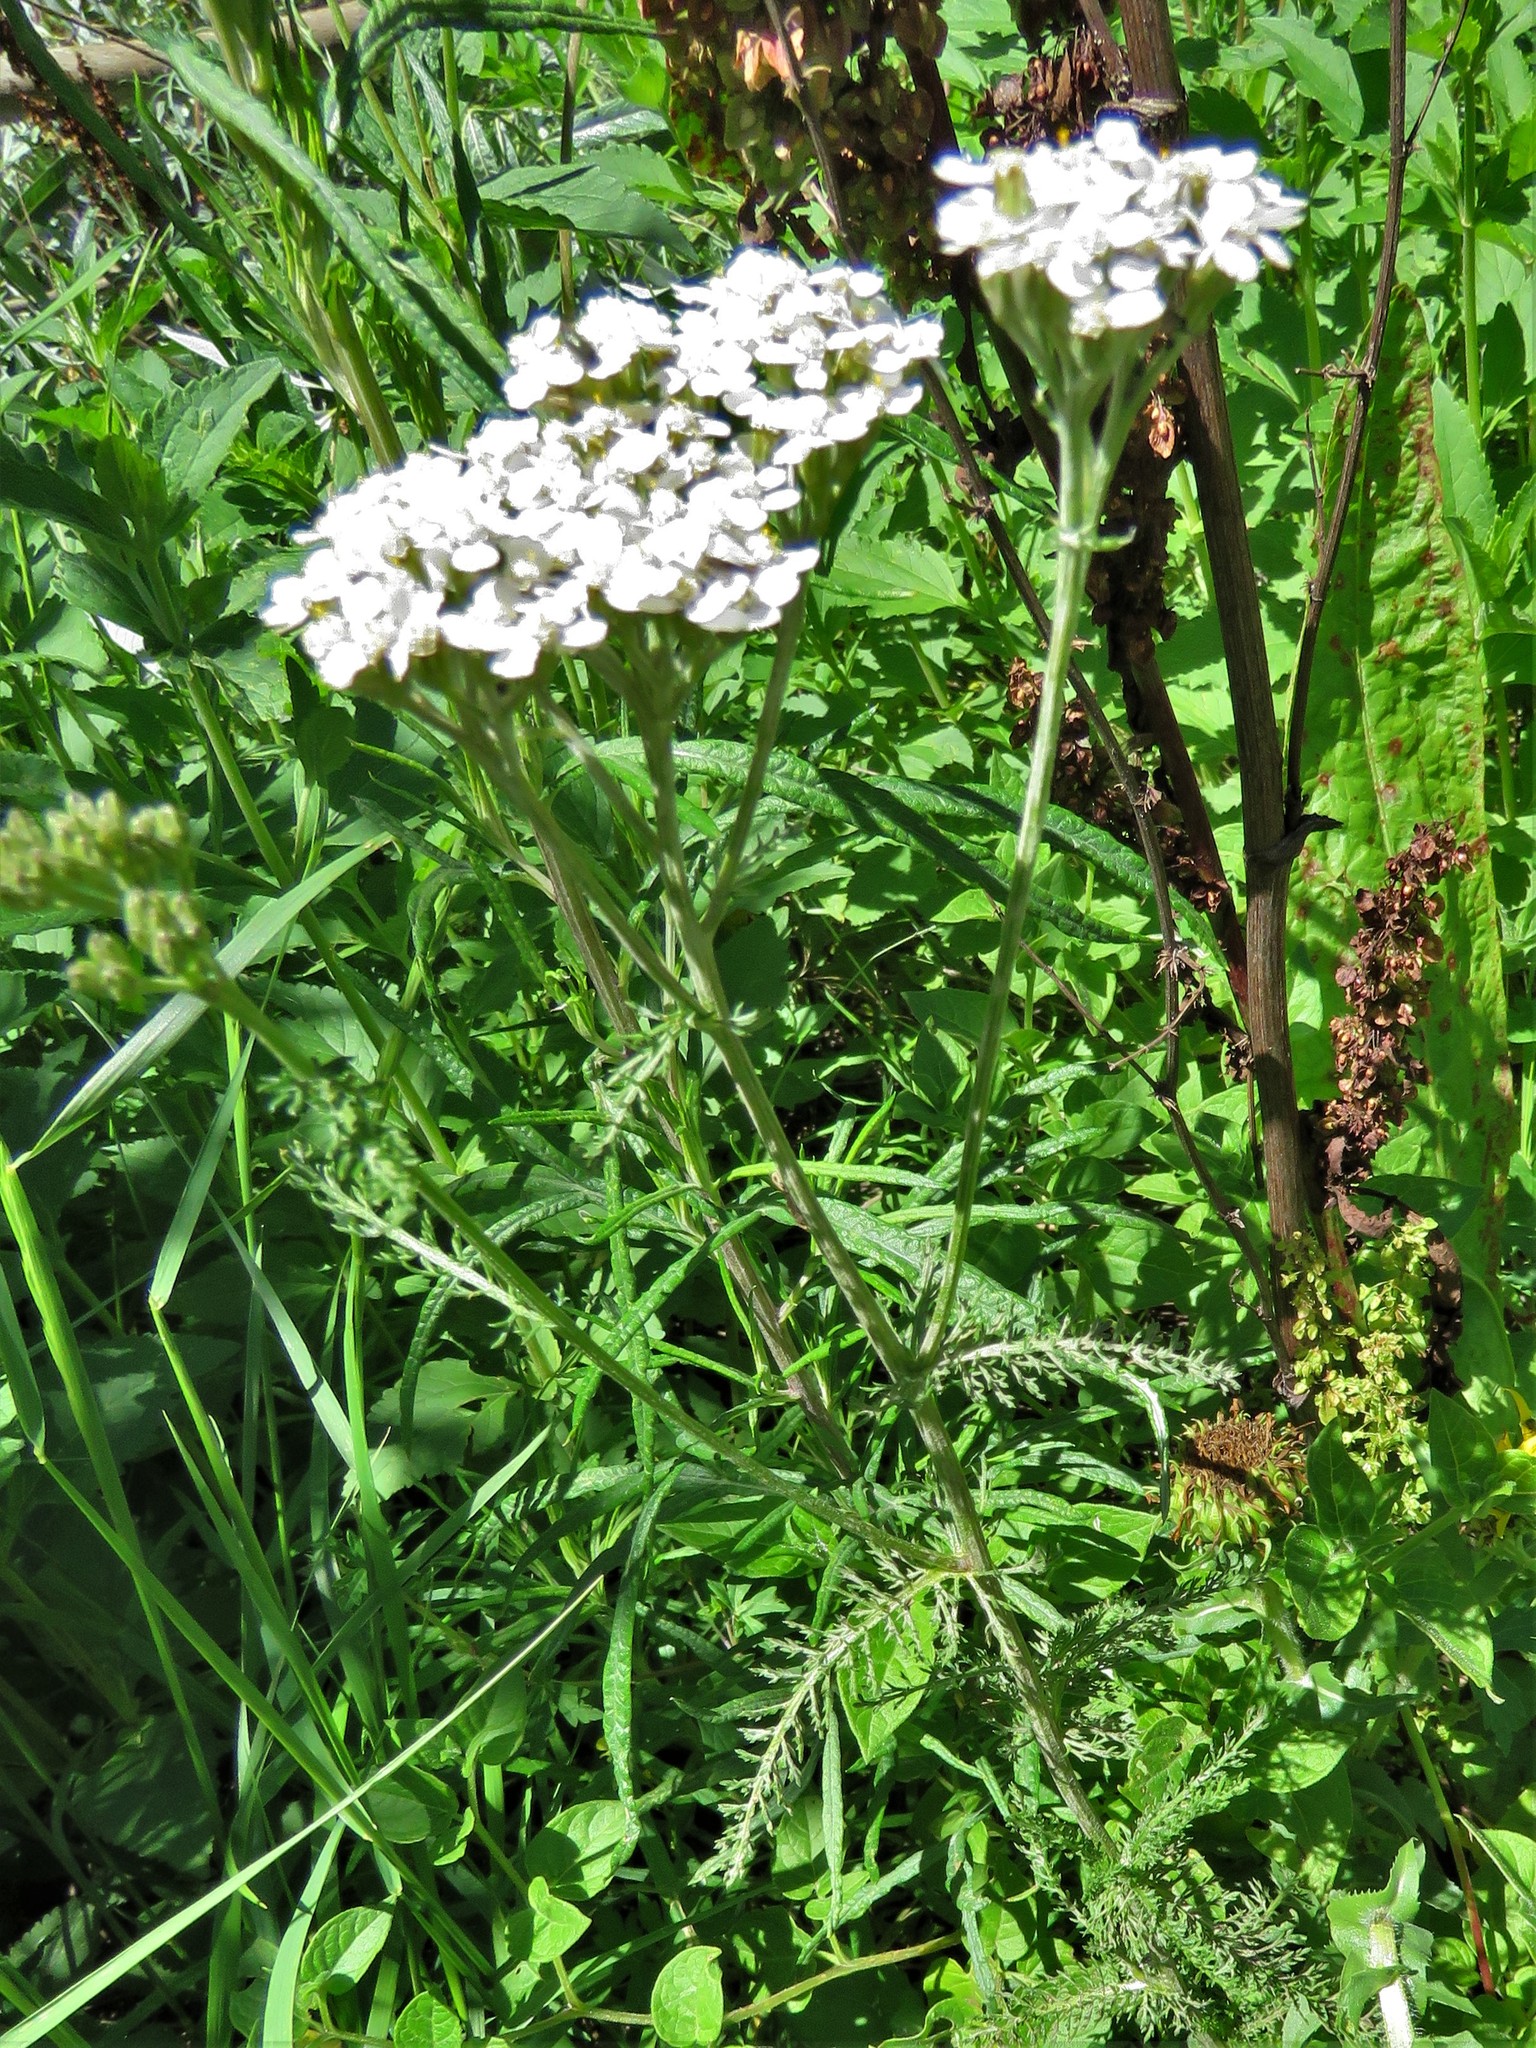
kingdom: Plantae
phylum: Tracheophyta
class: Magnoliopsida
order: Asterales
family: Asteraceae
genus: Achillea
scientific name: Achillea millefolium
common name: Yarrow
